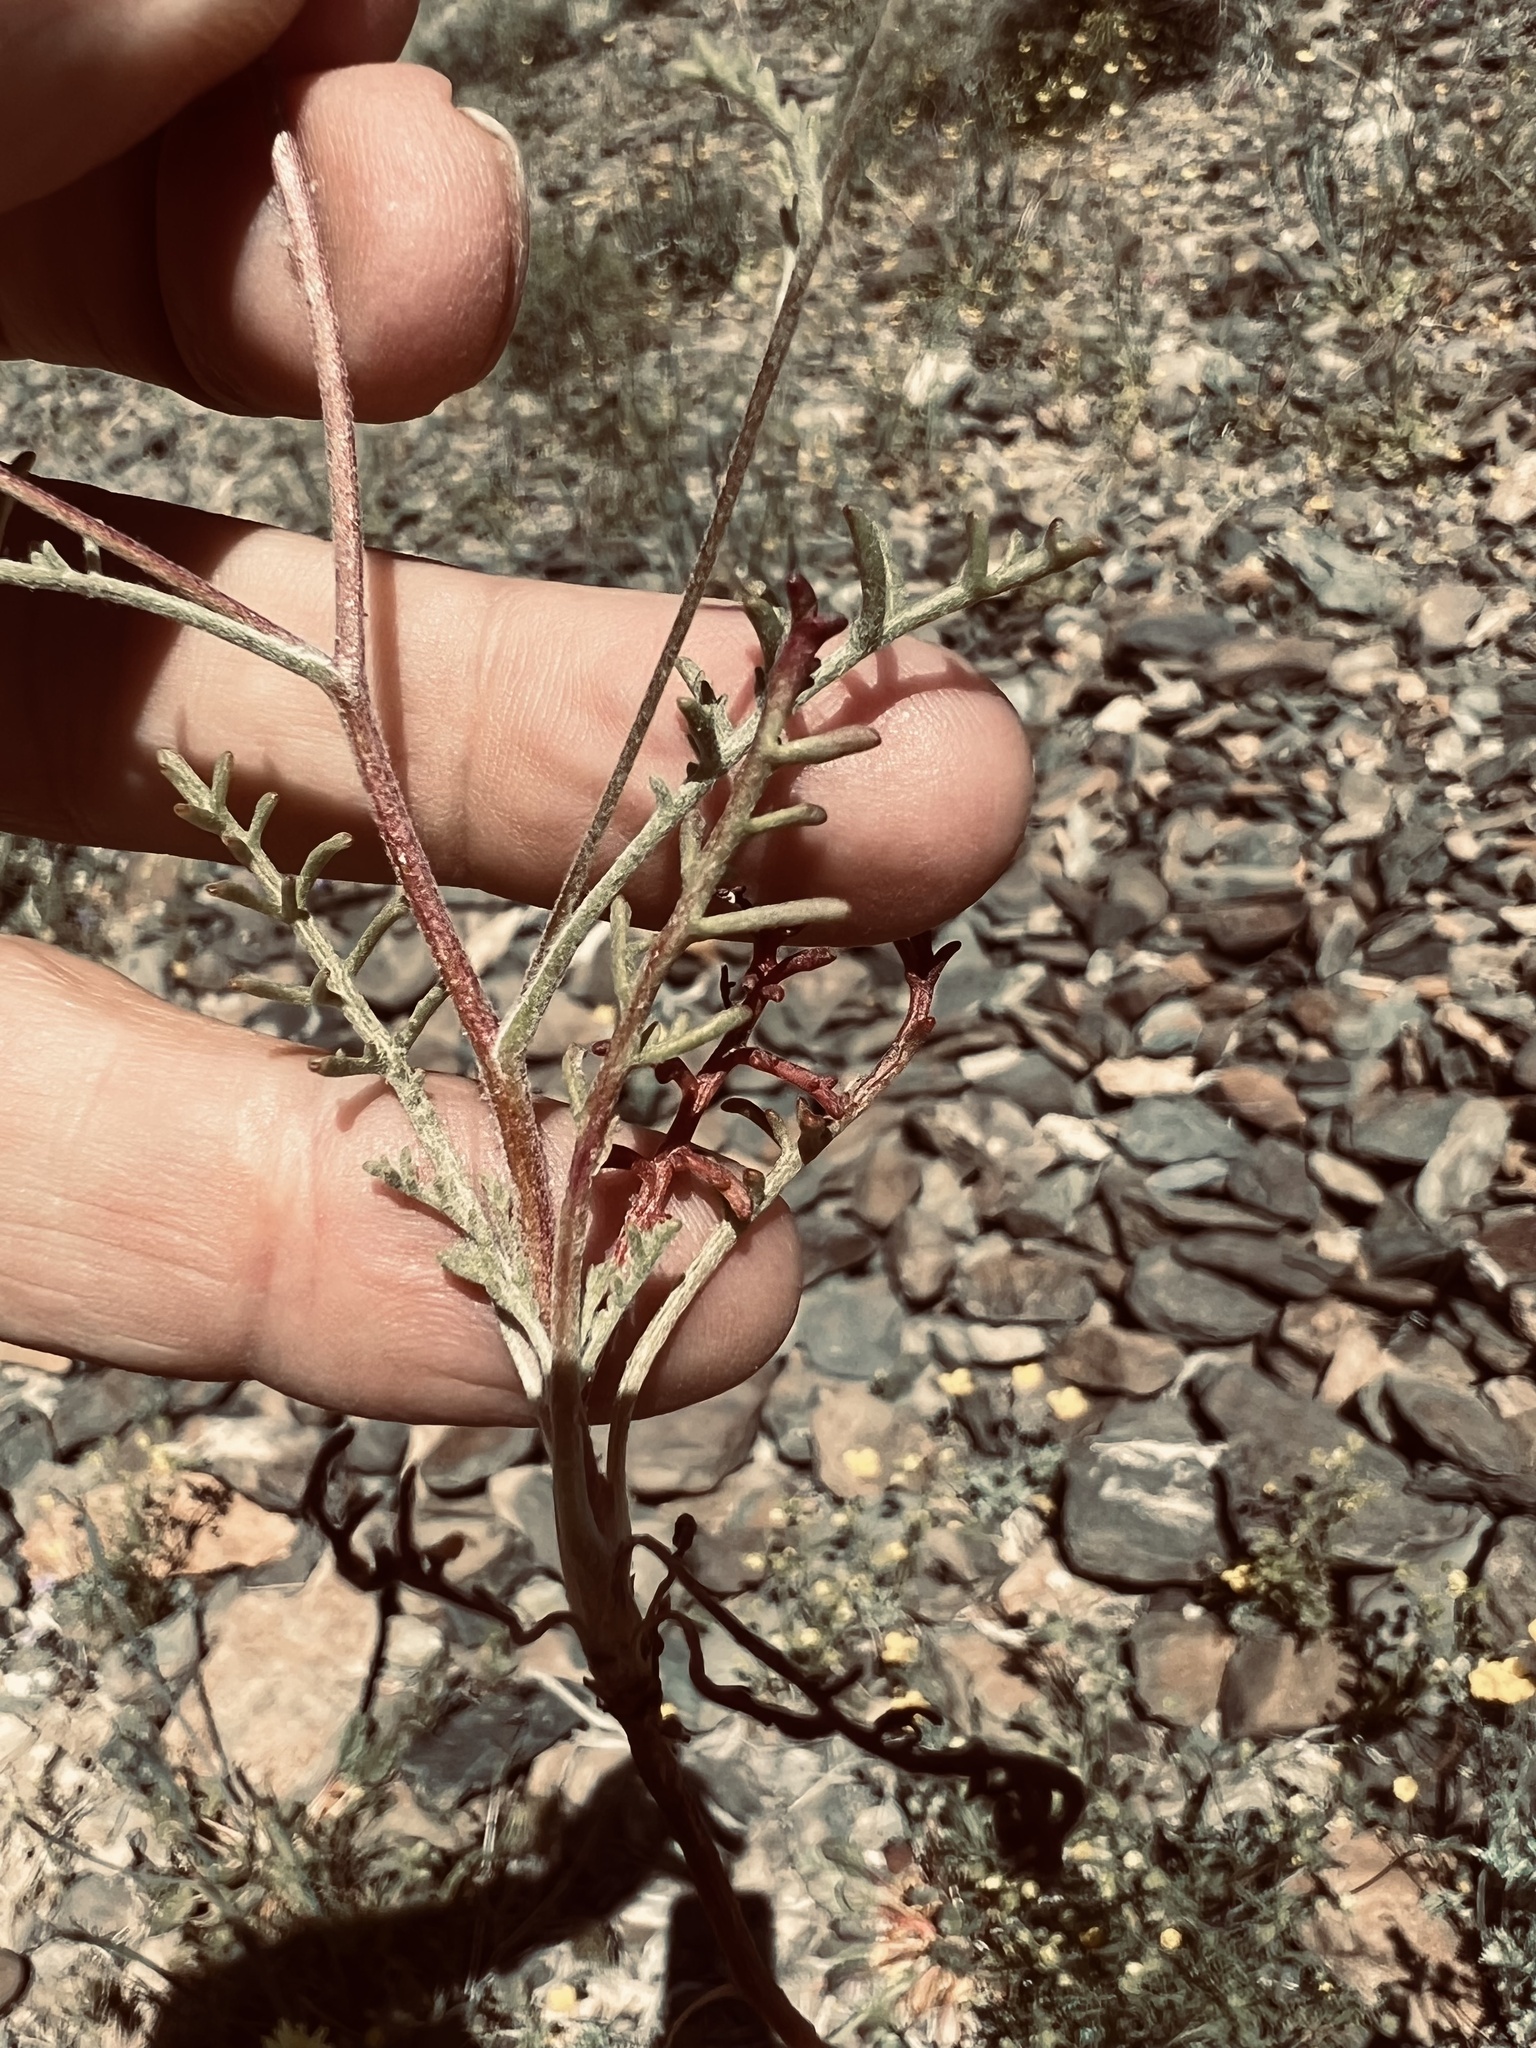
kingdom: Plantae
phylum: Tracheophyta
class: Magnoliopsida
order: Asterales
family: Asteraceae
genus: Chaenactis
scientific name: Chaenactis stevioides
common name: Desert pincushion
